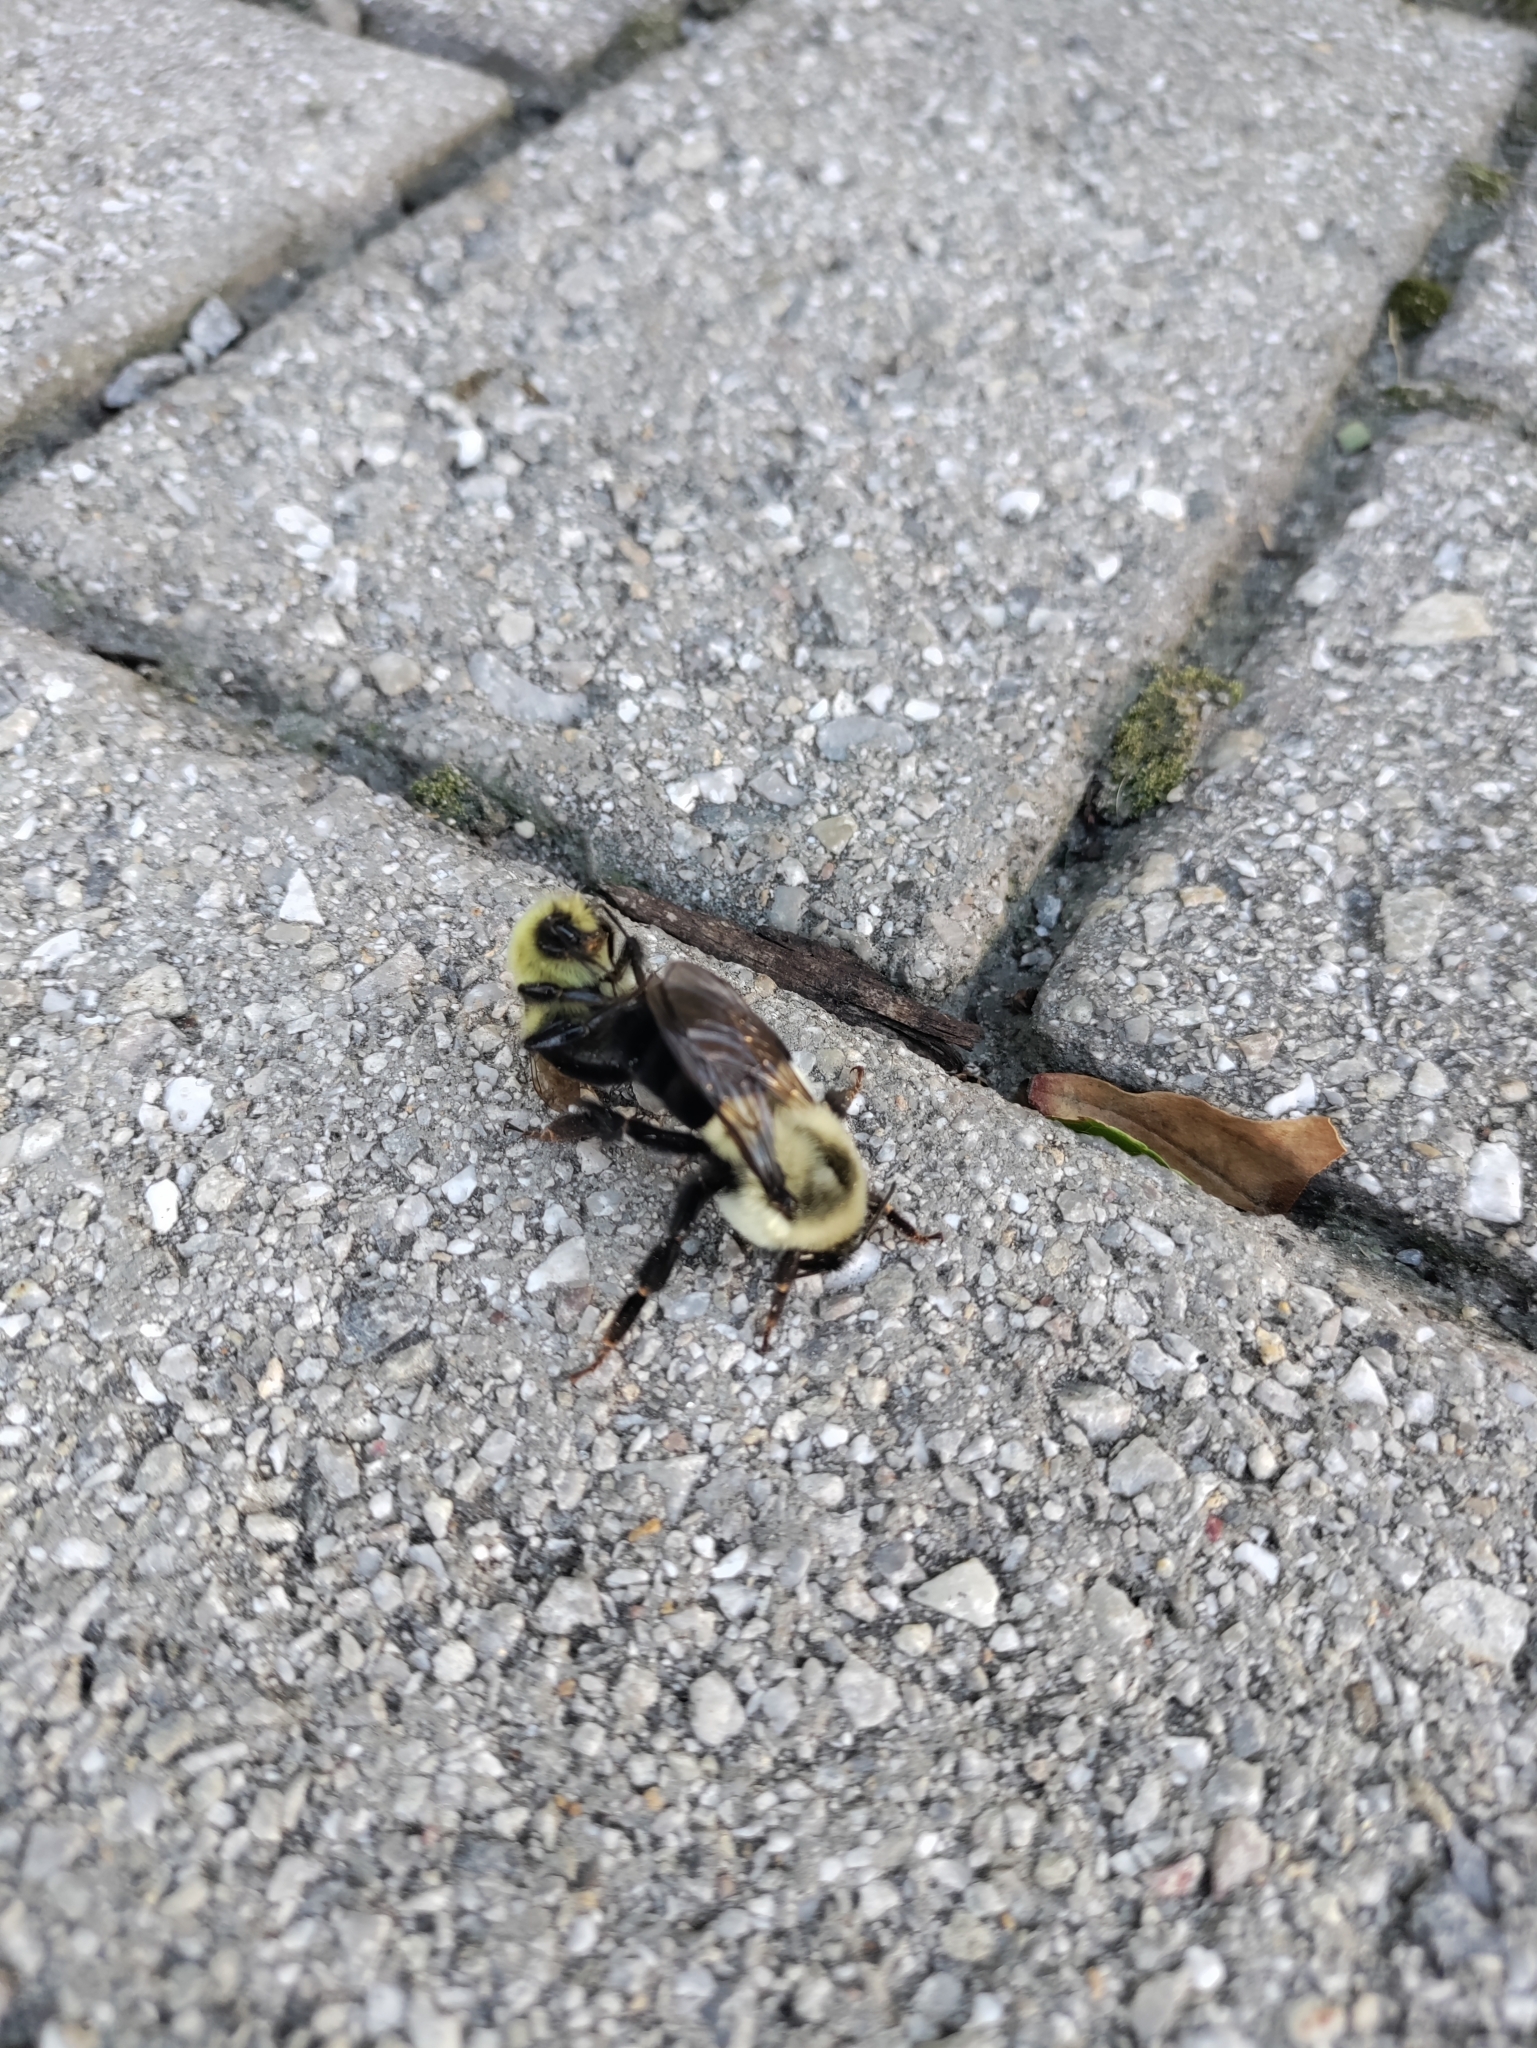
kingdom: Animalia
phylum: Arthropoda
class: Insecta
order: Hymenoptera
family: Apidae
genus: Bombus
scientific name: Bombus impatiens
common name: Common eastern bumble bee
